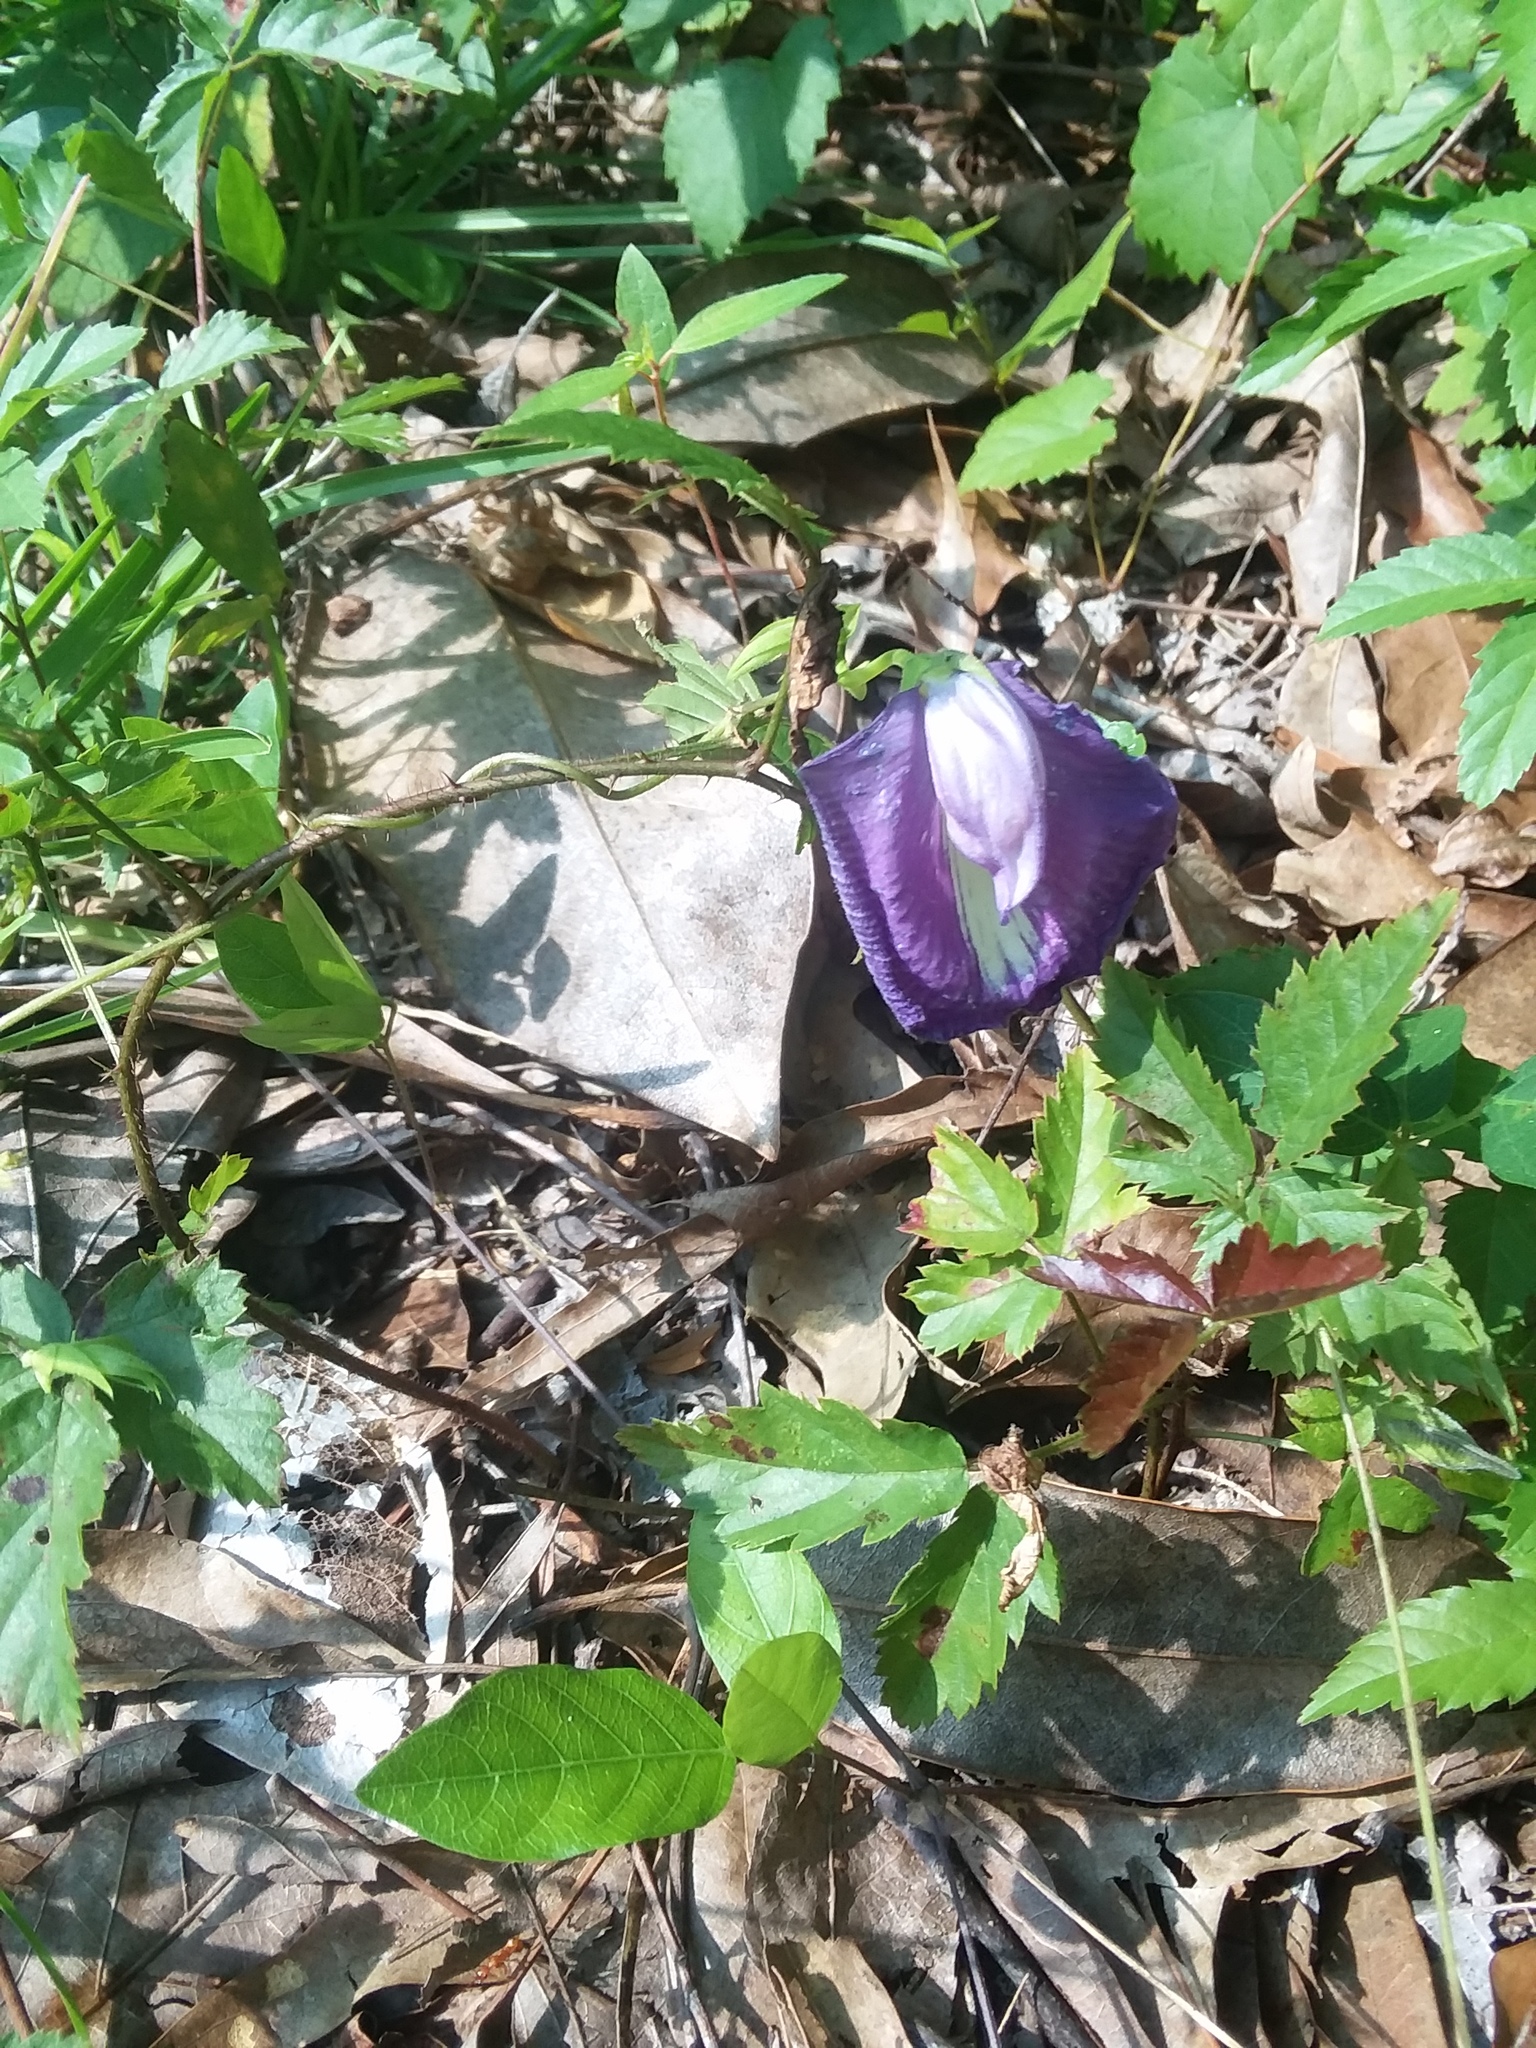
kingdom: Plantae
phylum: Tracheophyta
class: Magnoliopsida
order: Fabales
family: Fabaceae
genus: Centrosema
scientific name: Centrosema virginianum
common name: Butterfly-pea
